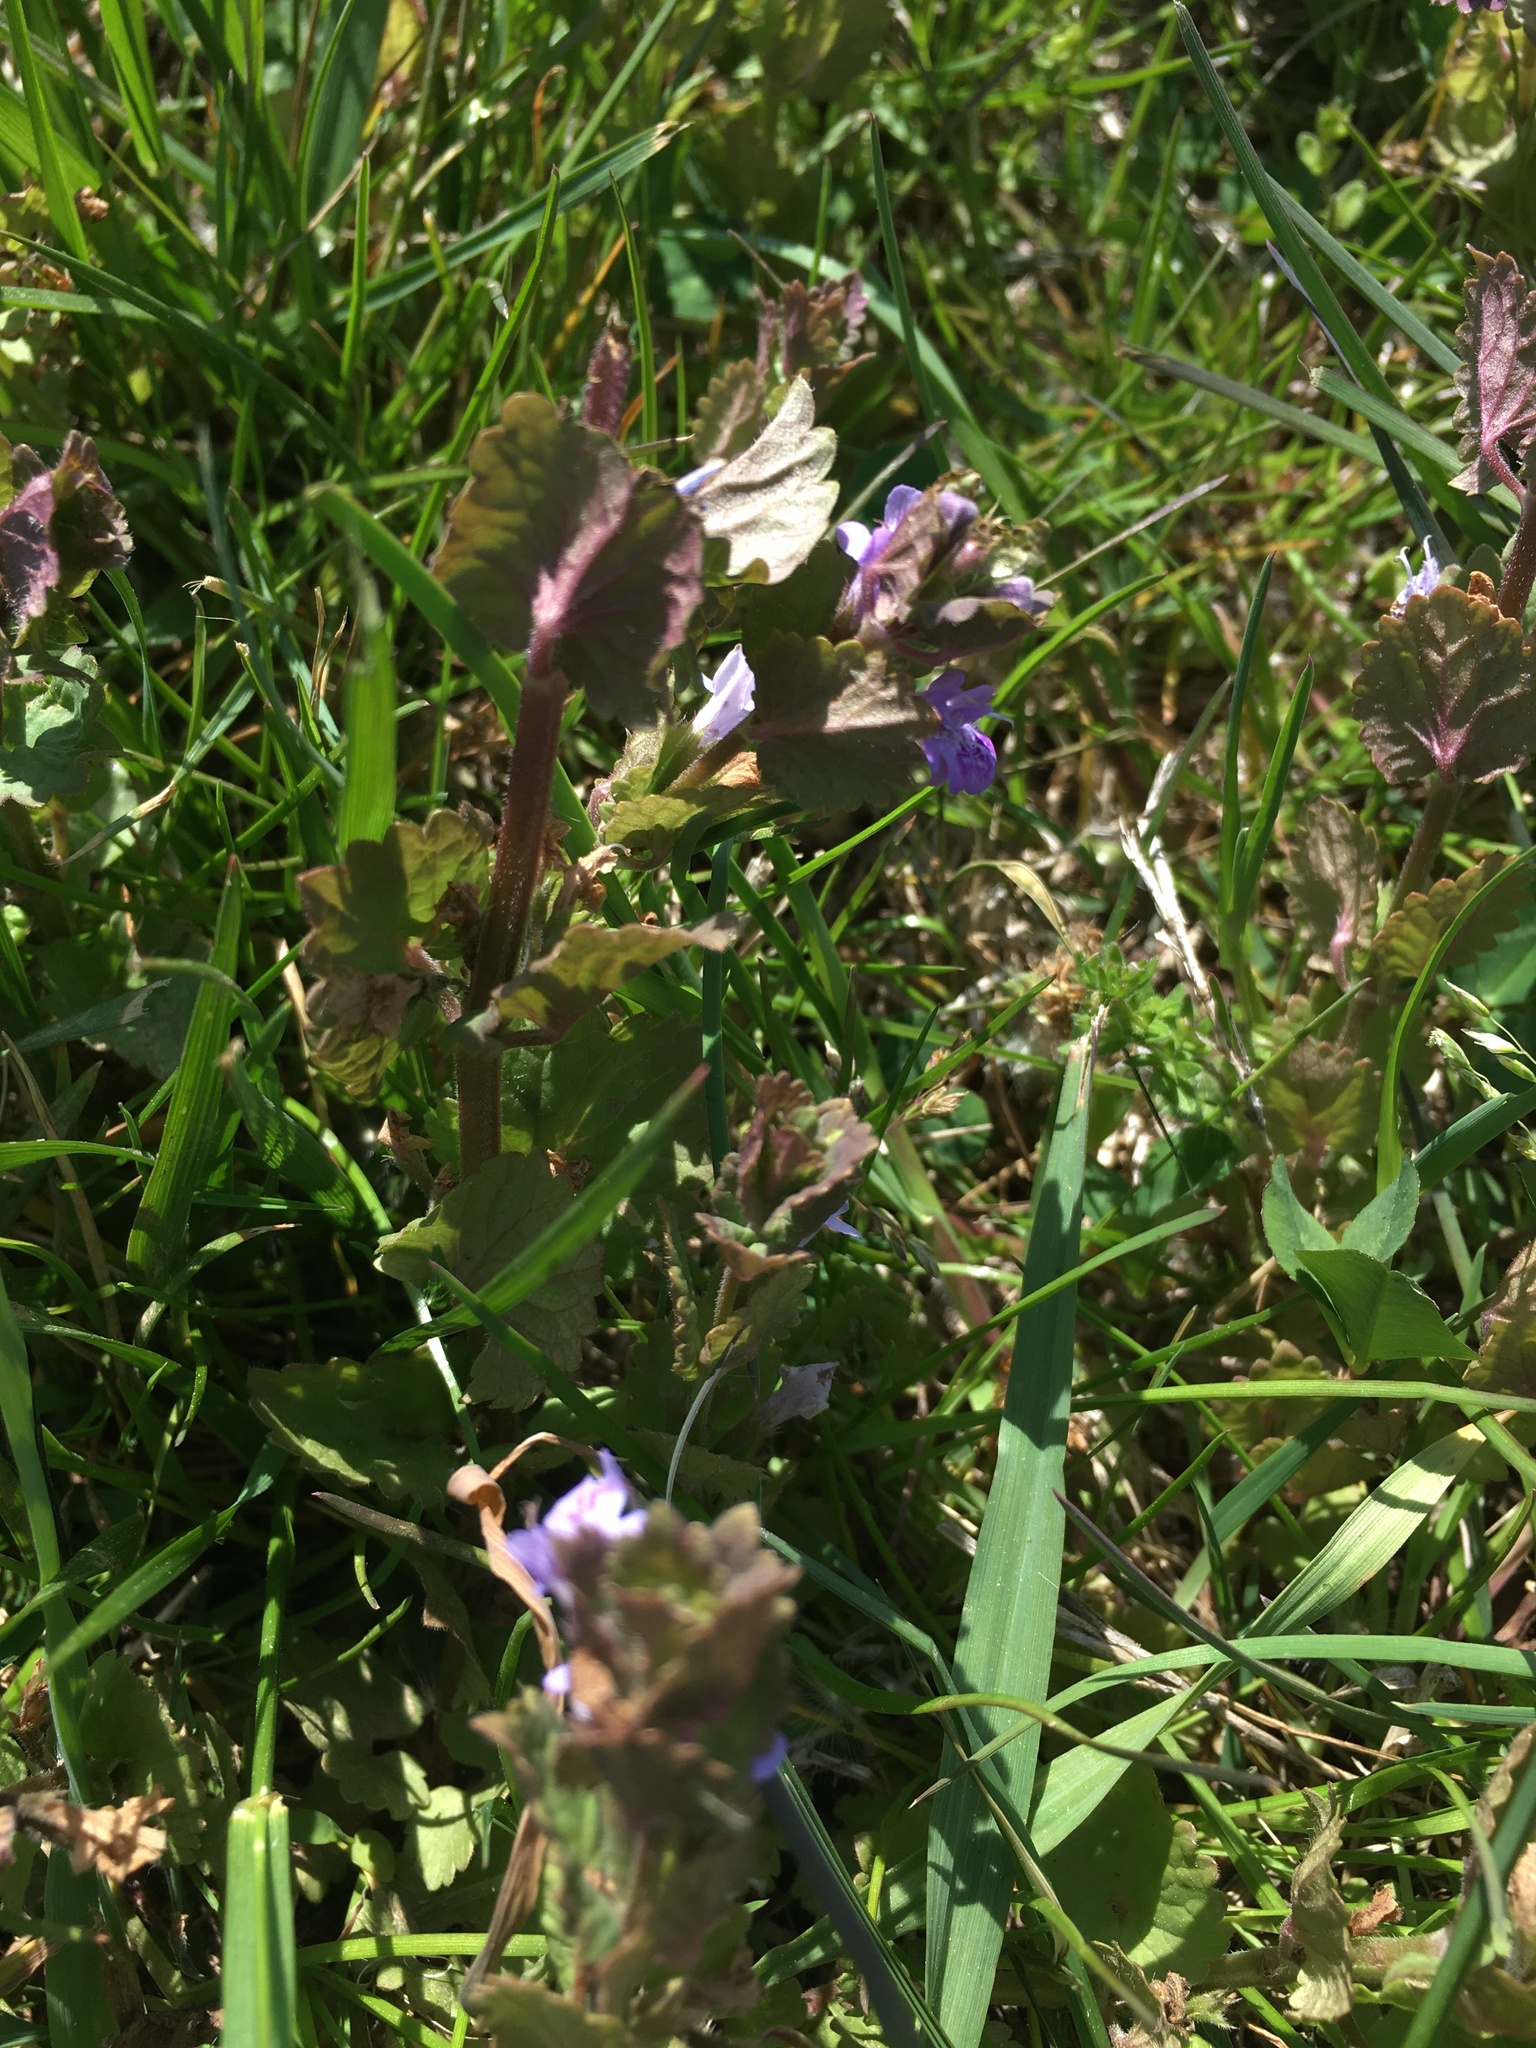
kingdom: Plantae
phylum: Tracheophyta
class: Magnoliopsida
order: Lamiales
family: Lamiaceae
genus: Glechoma
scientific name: Glechoma hederacea
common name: Ground ivy
